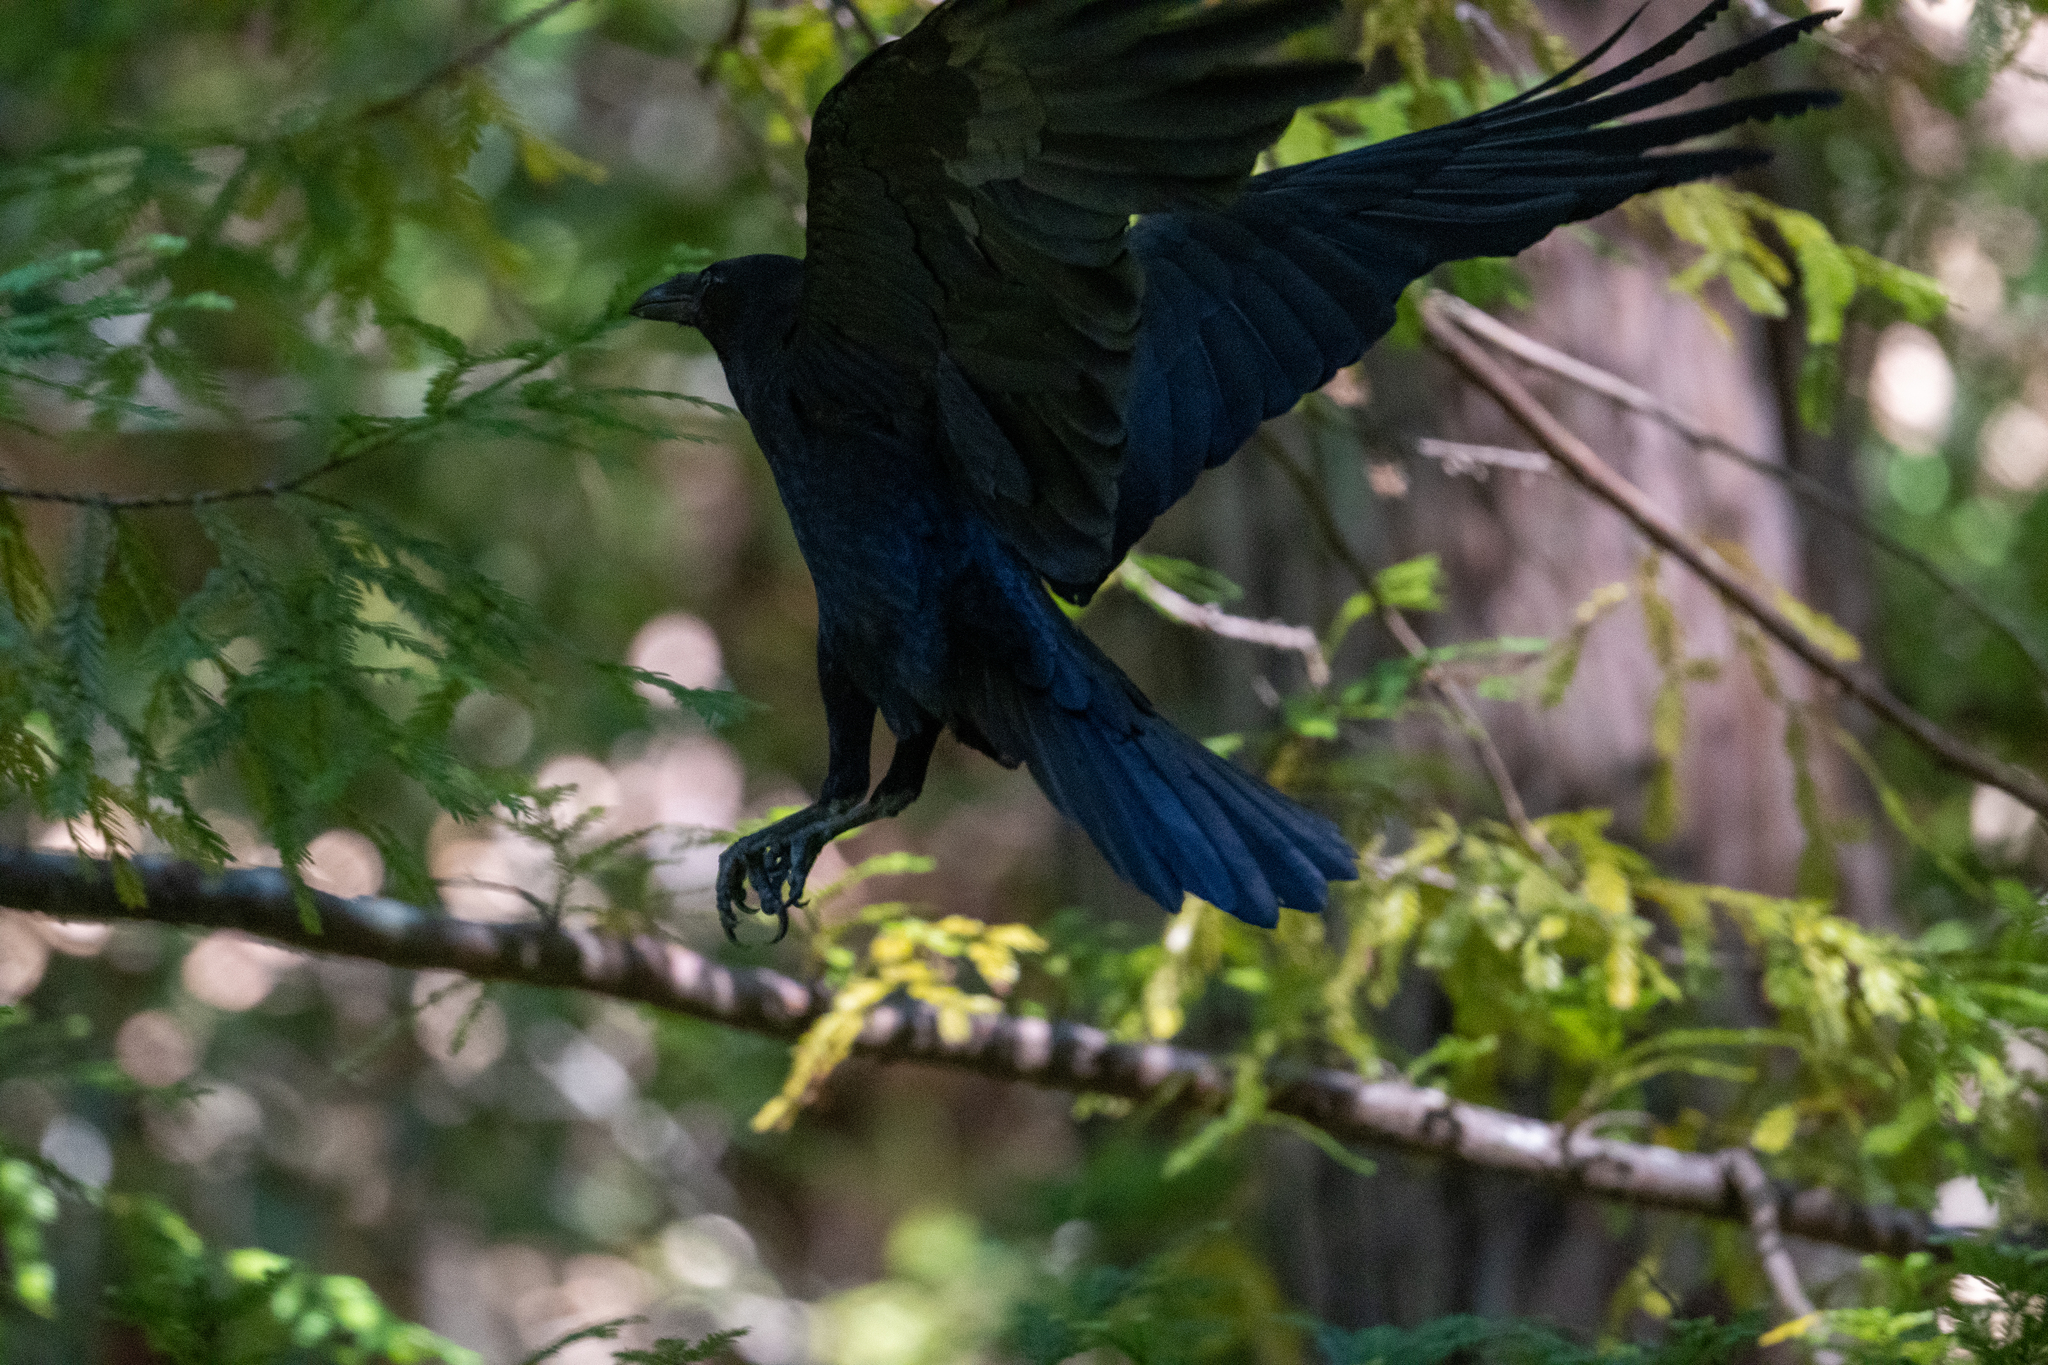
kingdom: Animalia
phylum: Chordata
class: Aves
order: Passeriformes
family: Corvidae
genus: Corvus
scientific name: Corvus brachyrhynchos
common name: American crow
